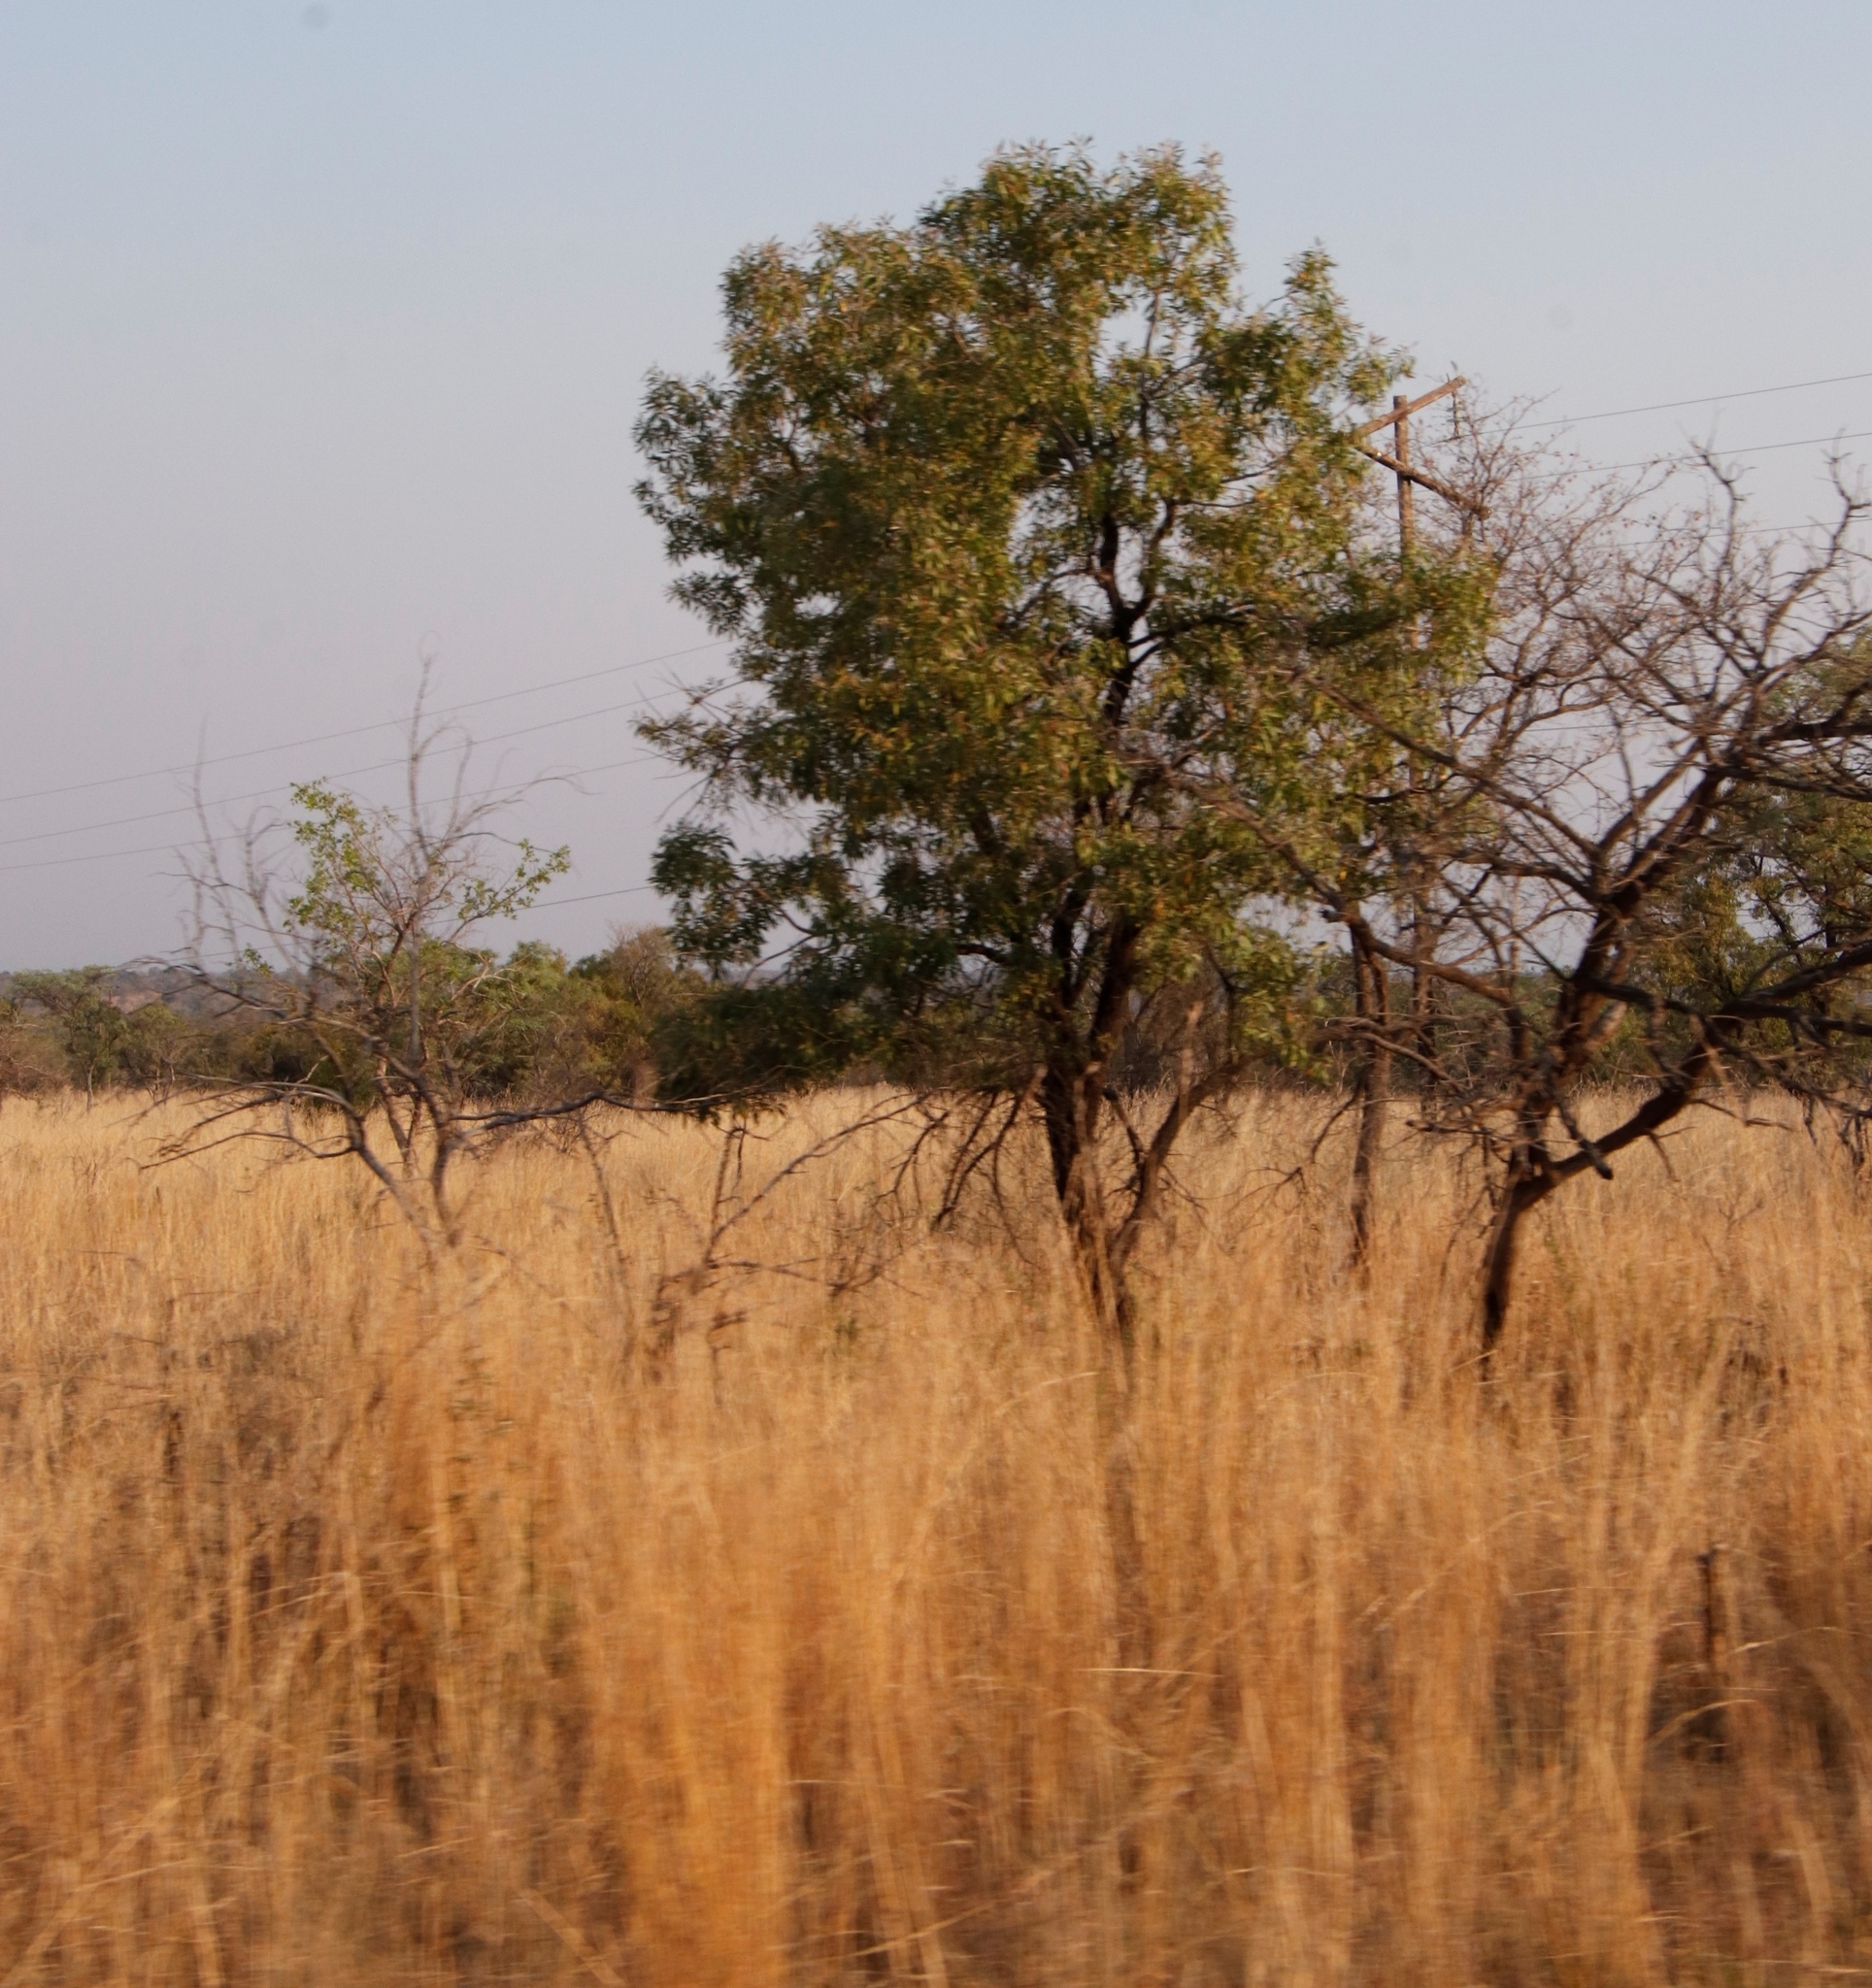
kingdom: Plantae
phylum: Tracheophyta
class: Magnoliopsida
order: Proteales
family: Proteaceae
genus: Faurea
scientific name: Faurea saligna
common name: African bean
